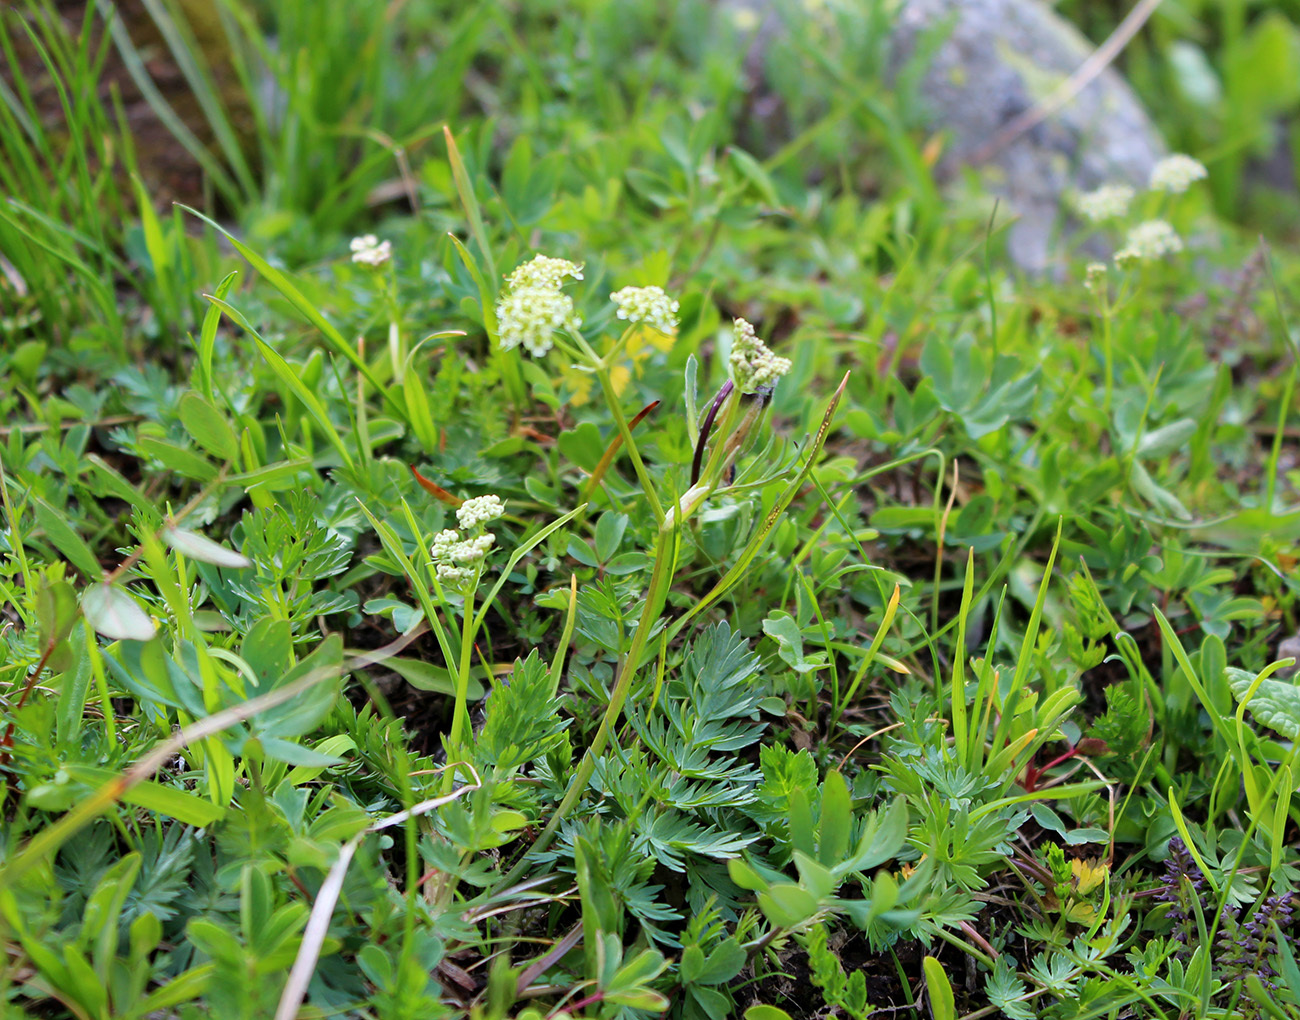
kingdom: Plantae
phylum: Tracheophyta
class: Magnoliopsida
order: Apiales
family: Apiaceae
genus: Carum
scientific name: Carum caucasicum
